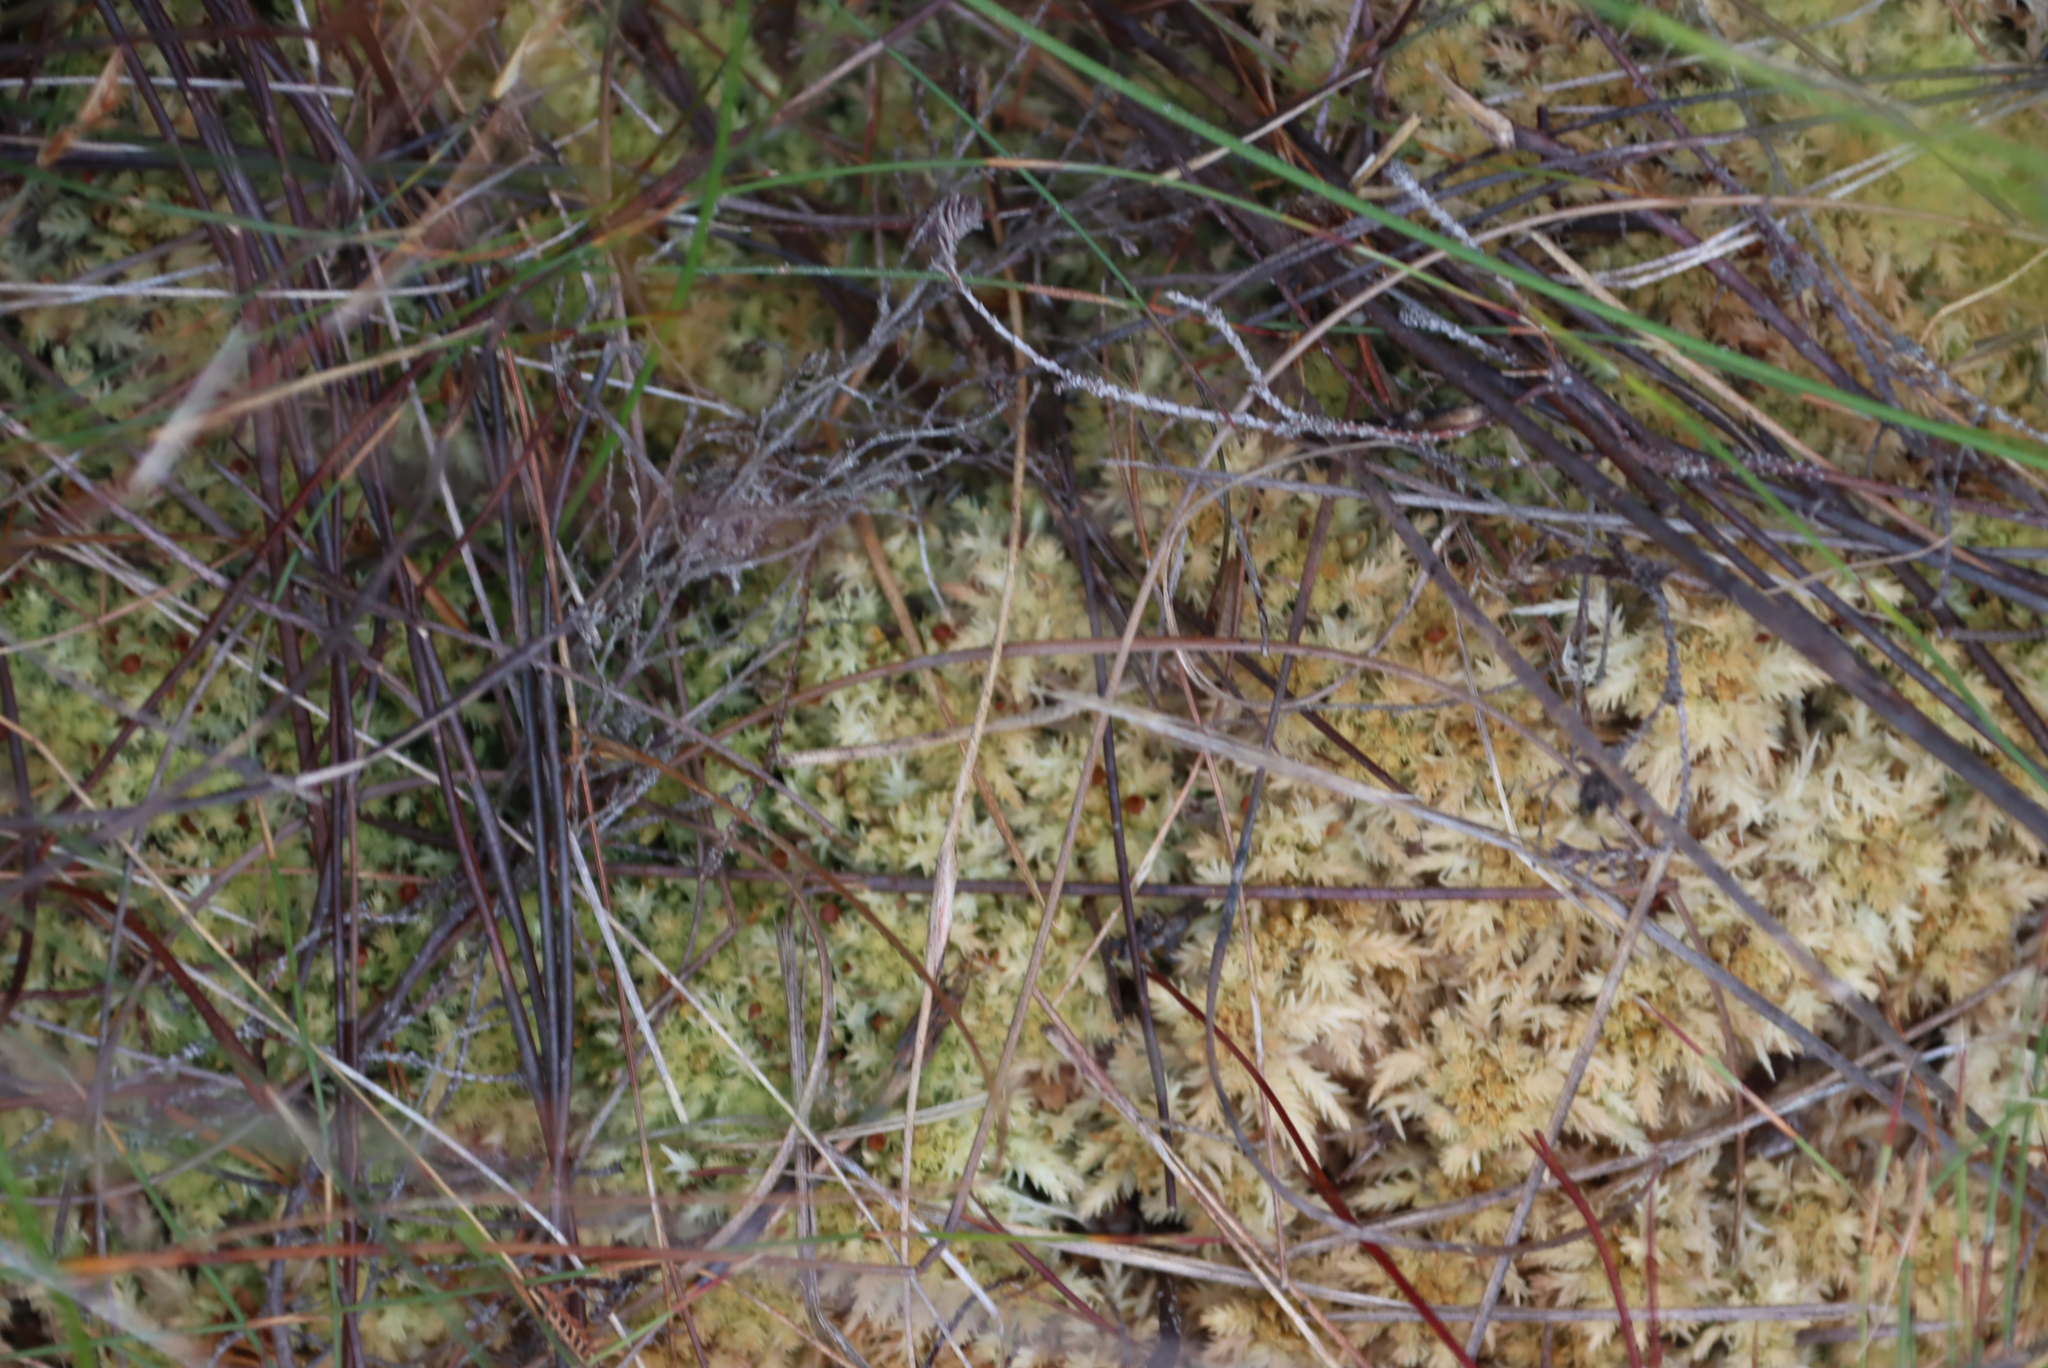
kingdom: Plantae
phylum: Bryophyta
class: Sphagnopsida
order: Sphagnales
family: Sphagnaceae
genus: Sphagnum
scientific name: Sphagnum strictum
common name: Pale bog-moss
